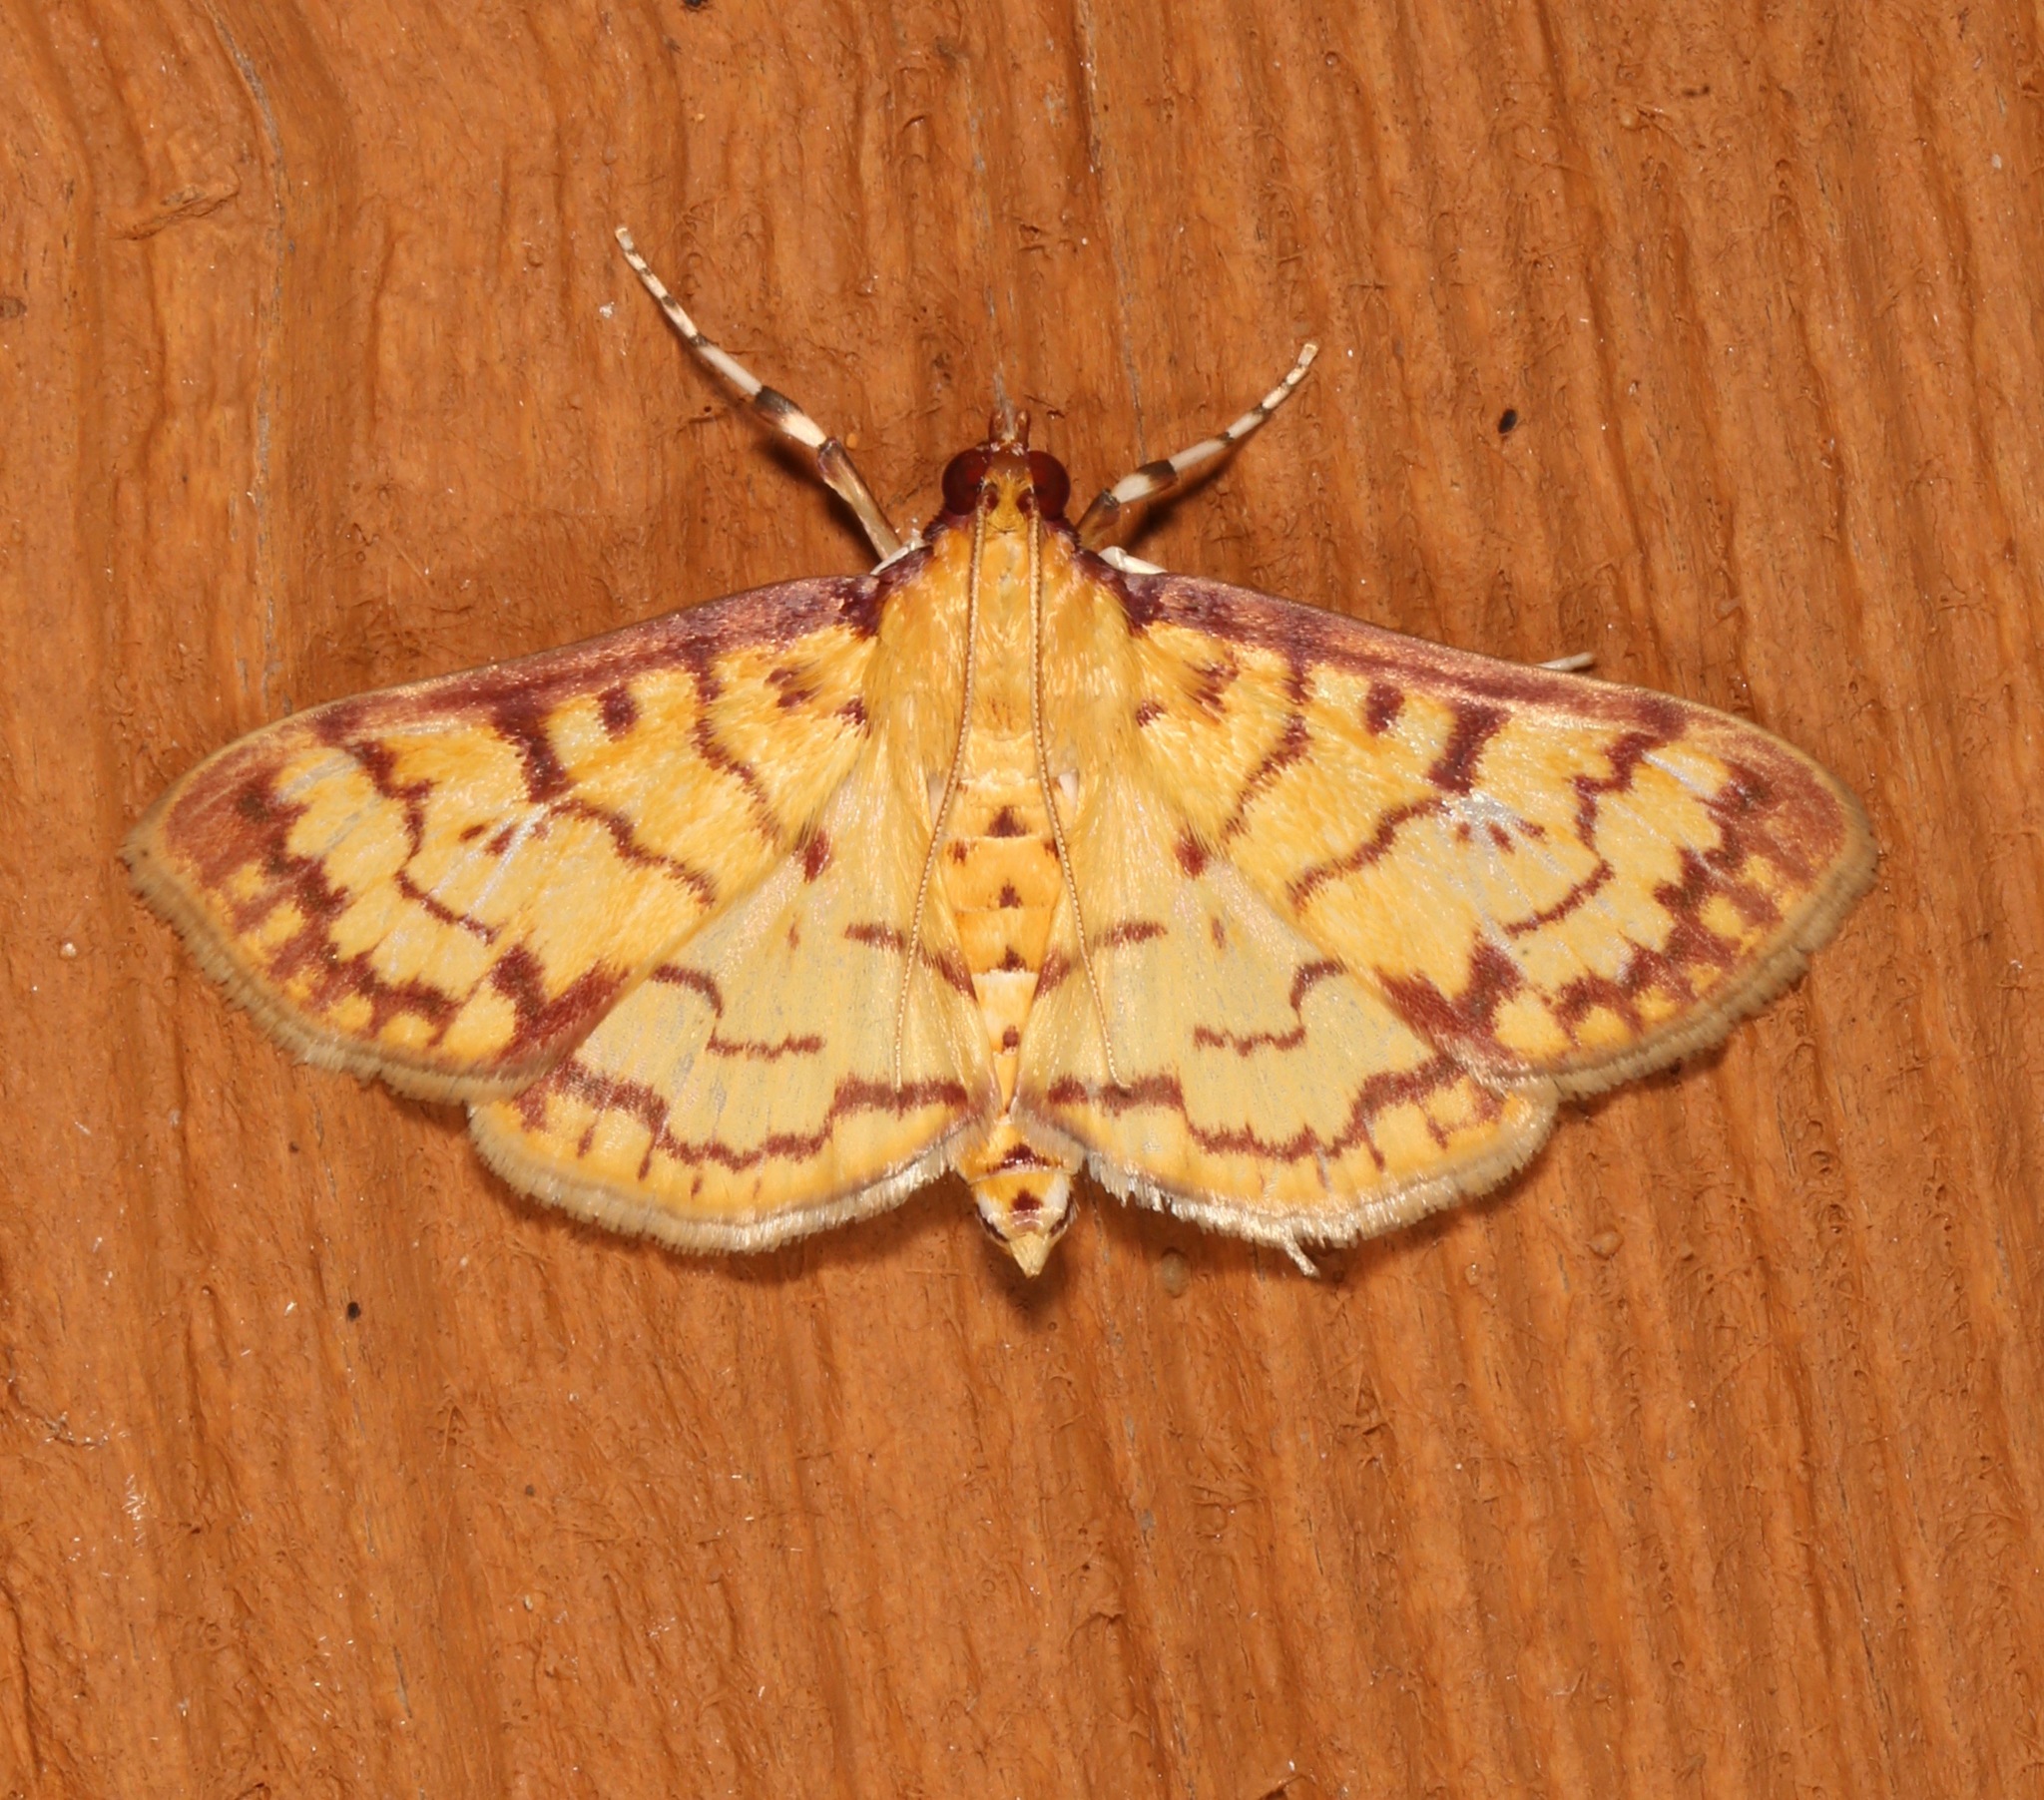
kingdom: Animalia
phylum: Arthropoda
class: Insecta
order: Lepidoptera
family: Crambidae
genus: Polygrammodes
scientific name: Polygrammodes flavidalis
